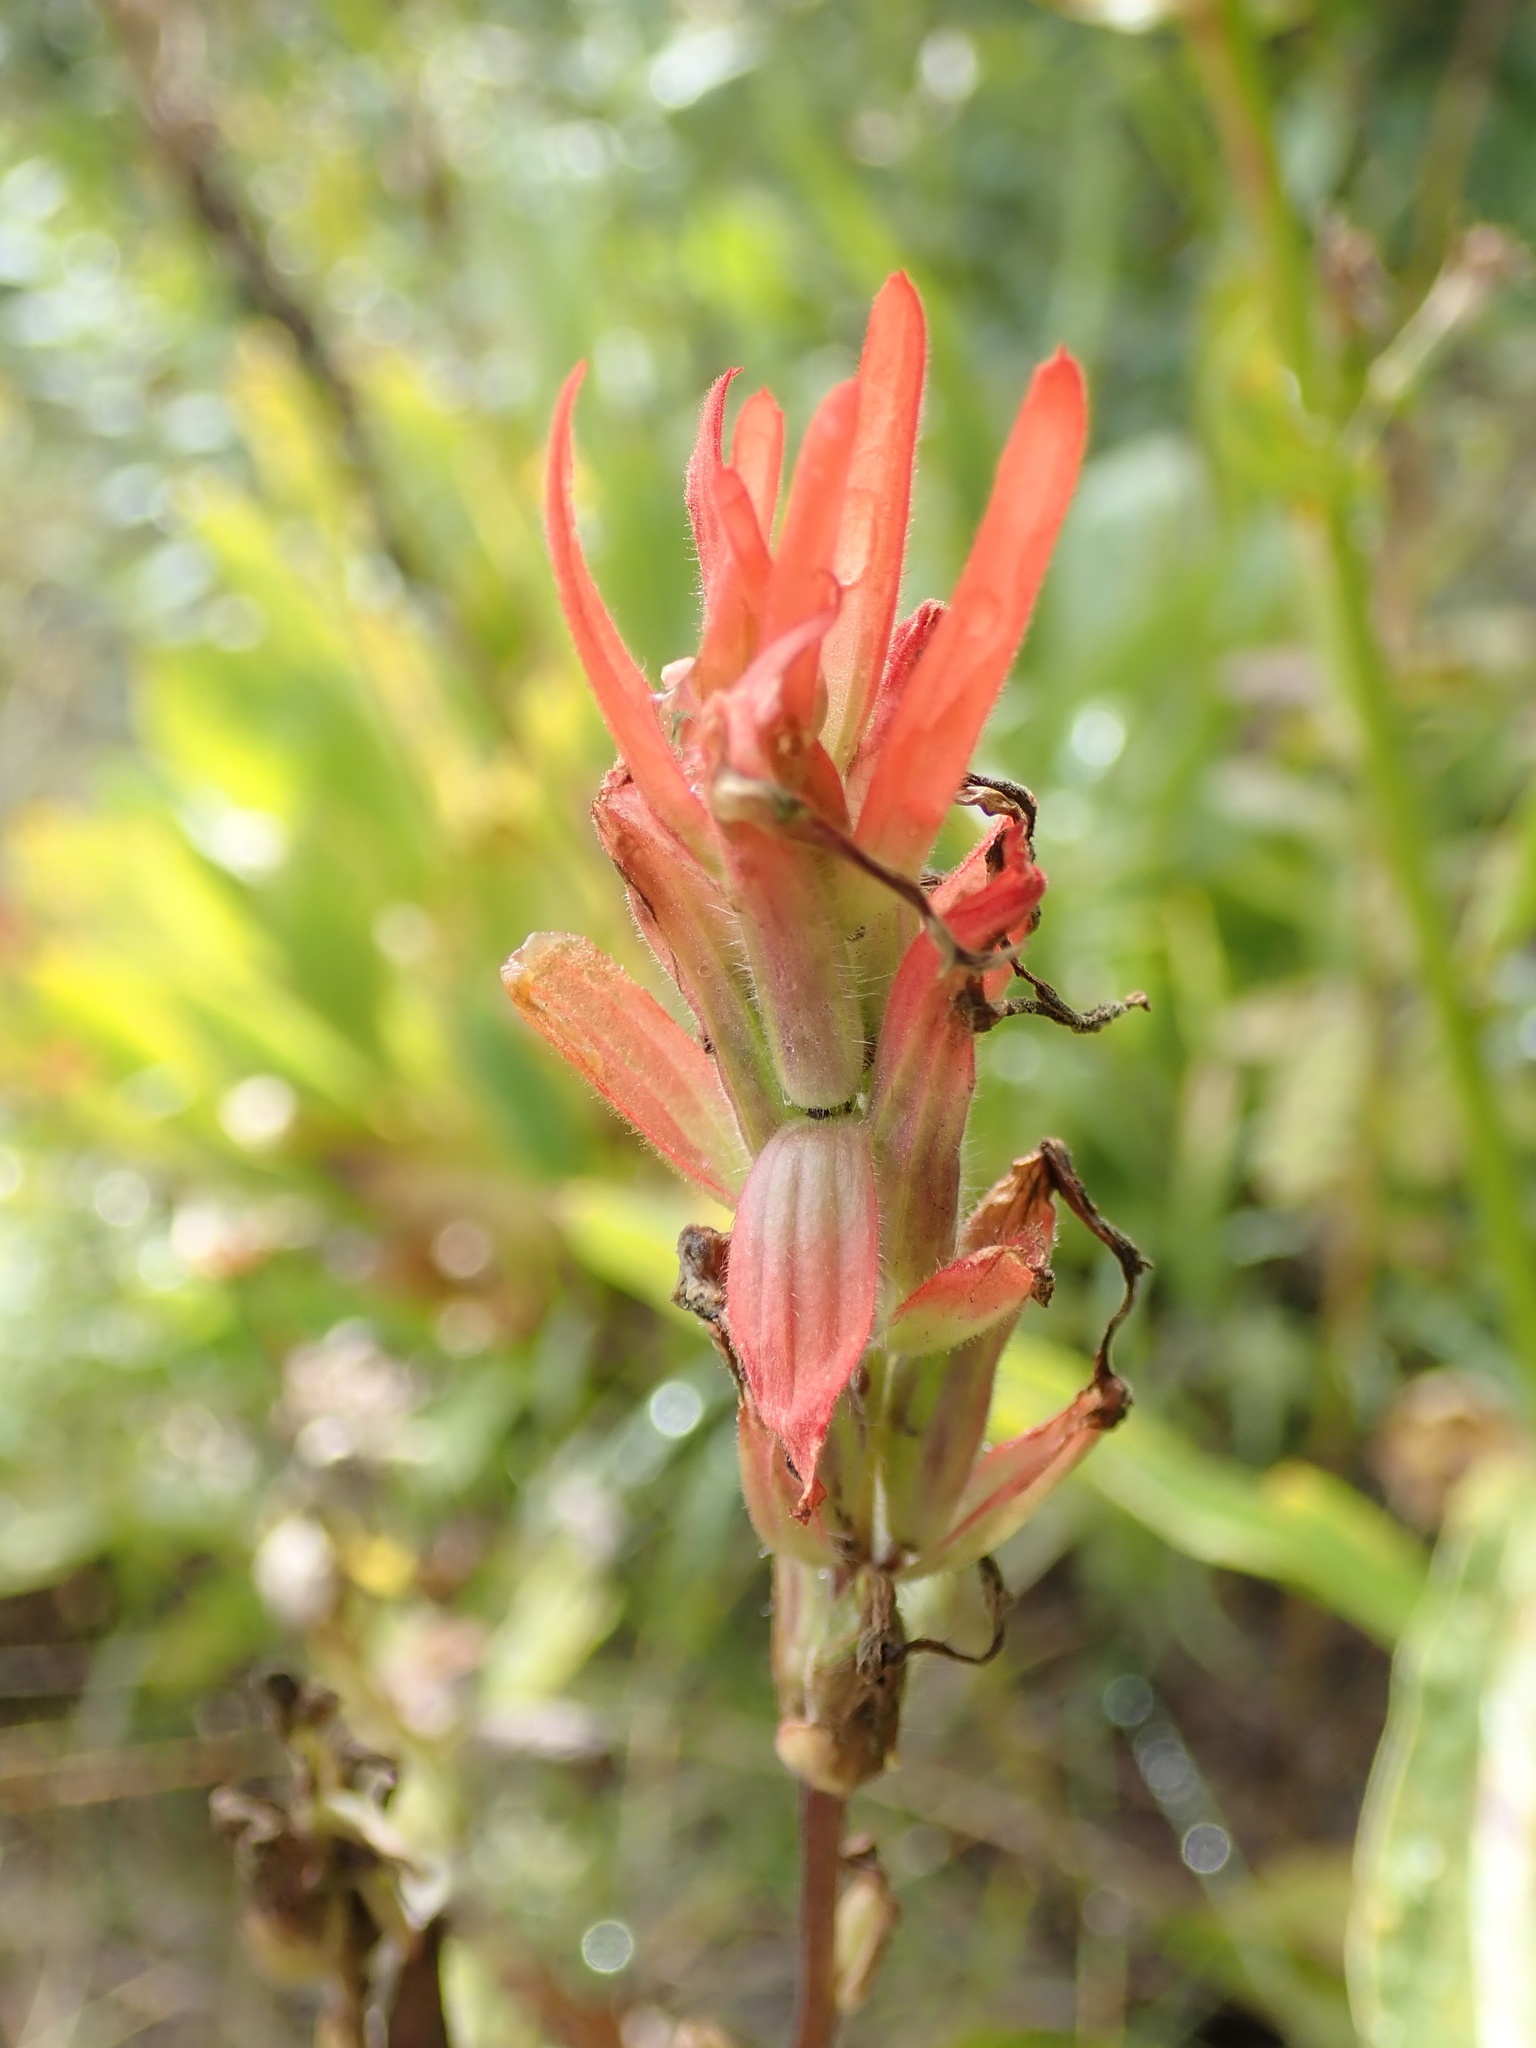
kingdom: Plantae
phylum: Tracheophyta
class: Magnoliopsida
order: Lamiales
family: Orobanchaceae
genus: Castilleja
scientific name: Castilleja miniata
